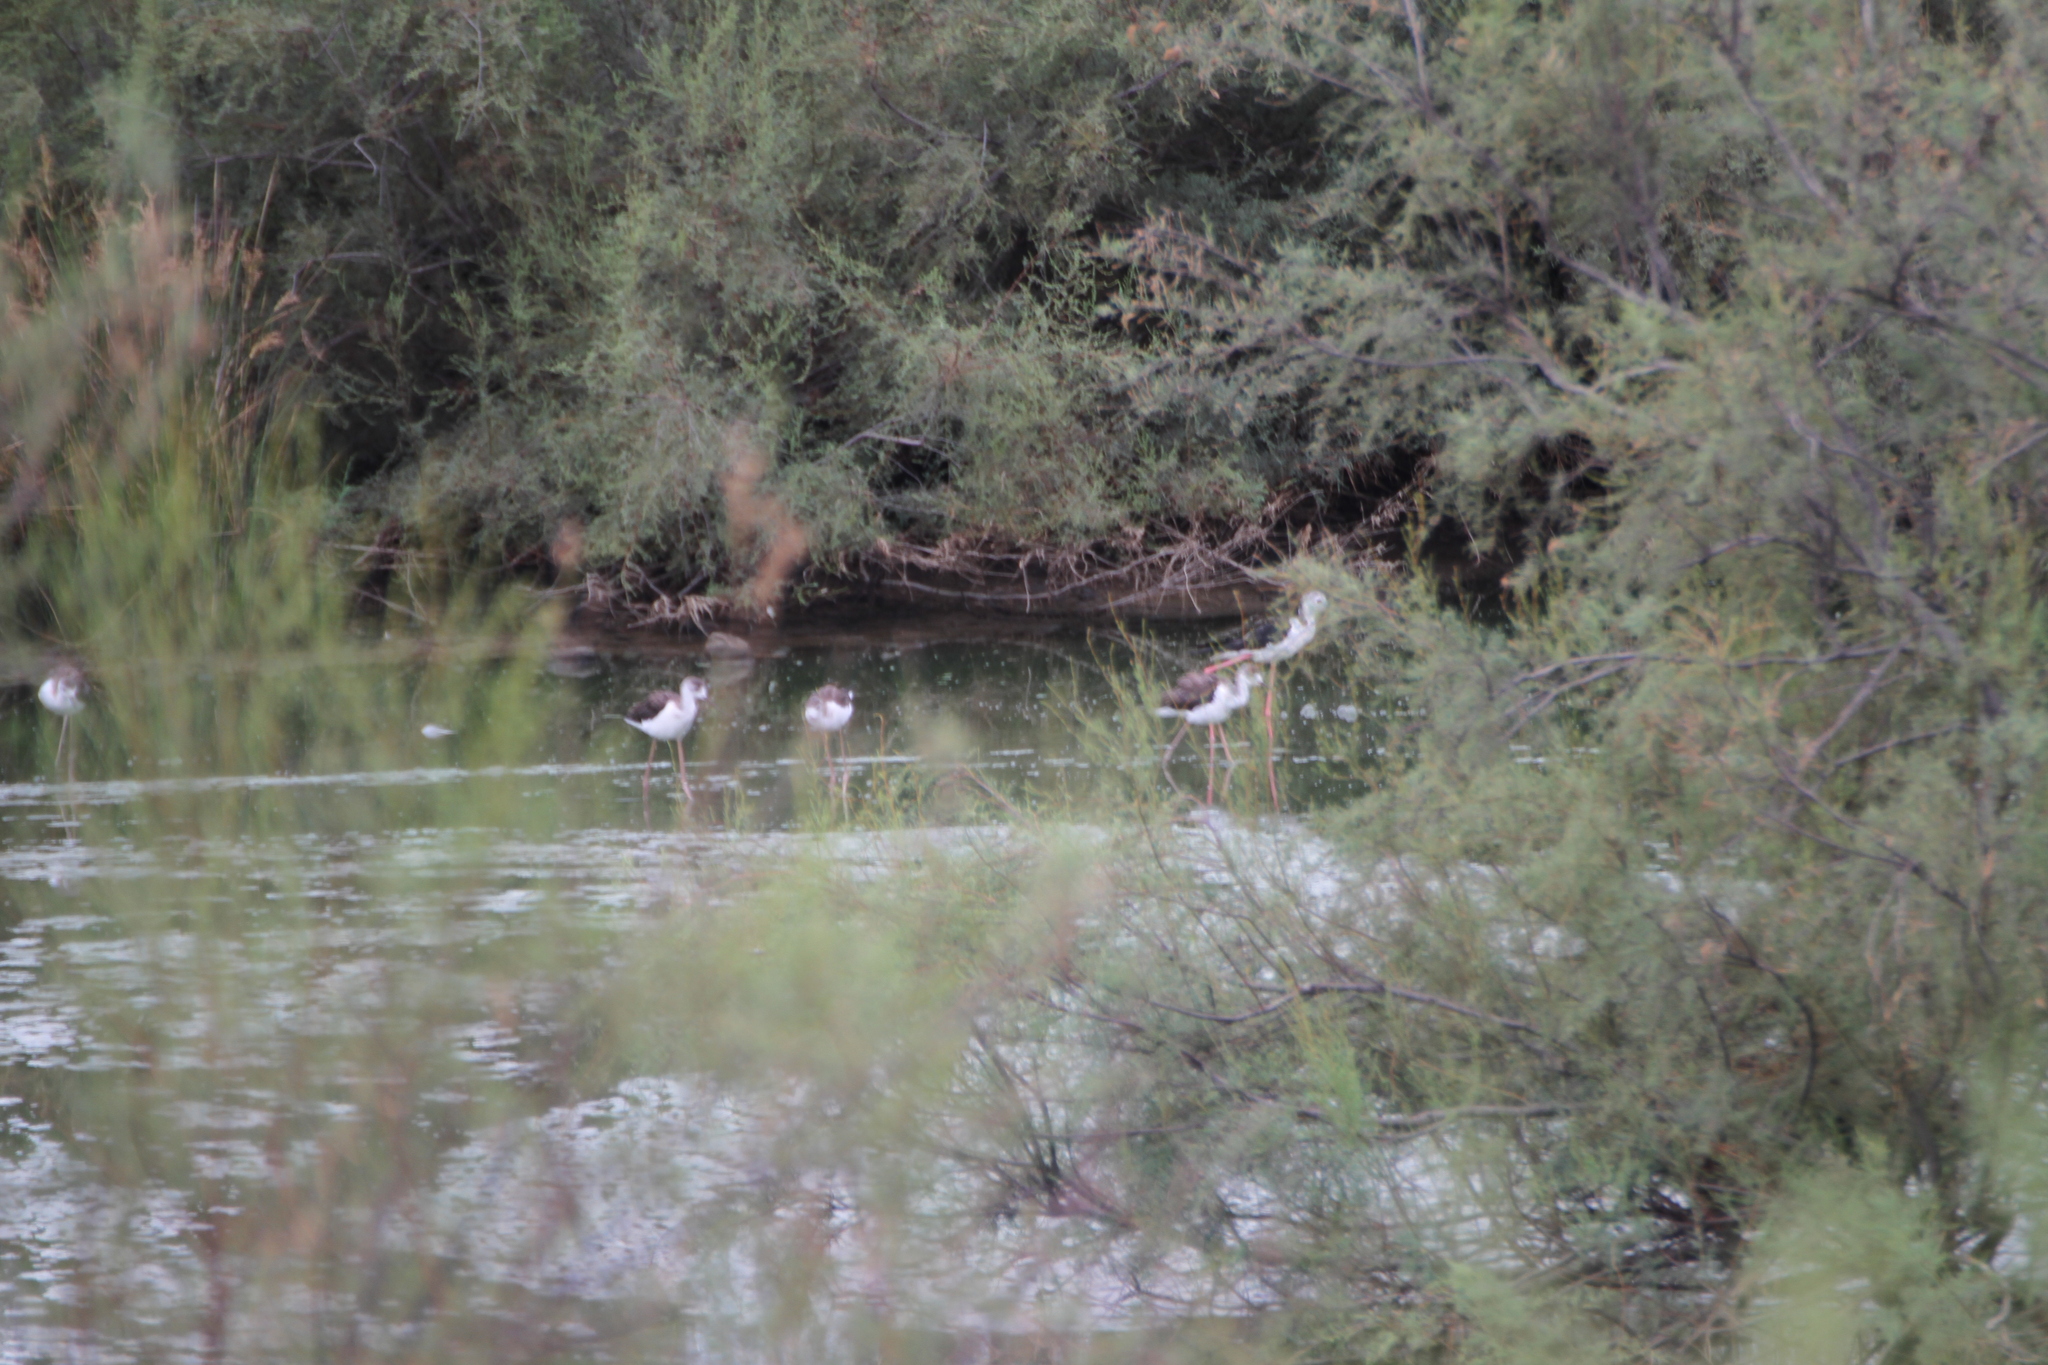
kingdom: Animalia
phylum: Chordata
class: Aves
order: Charadriiformes
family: Recurvirostridae
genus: Himantopus
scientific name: Himantopus himantopus
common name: Black-winged stilt
